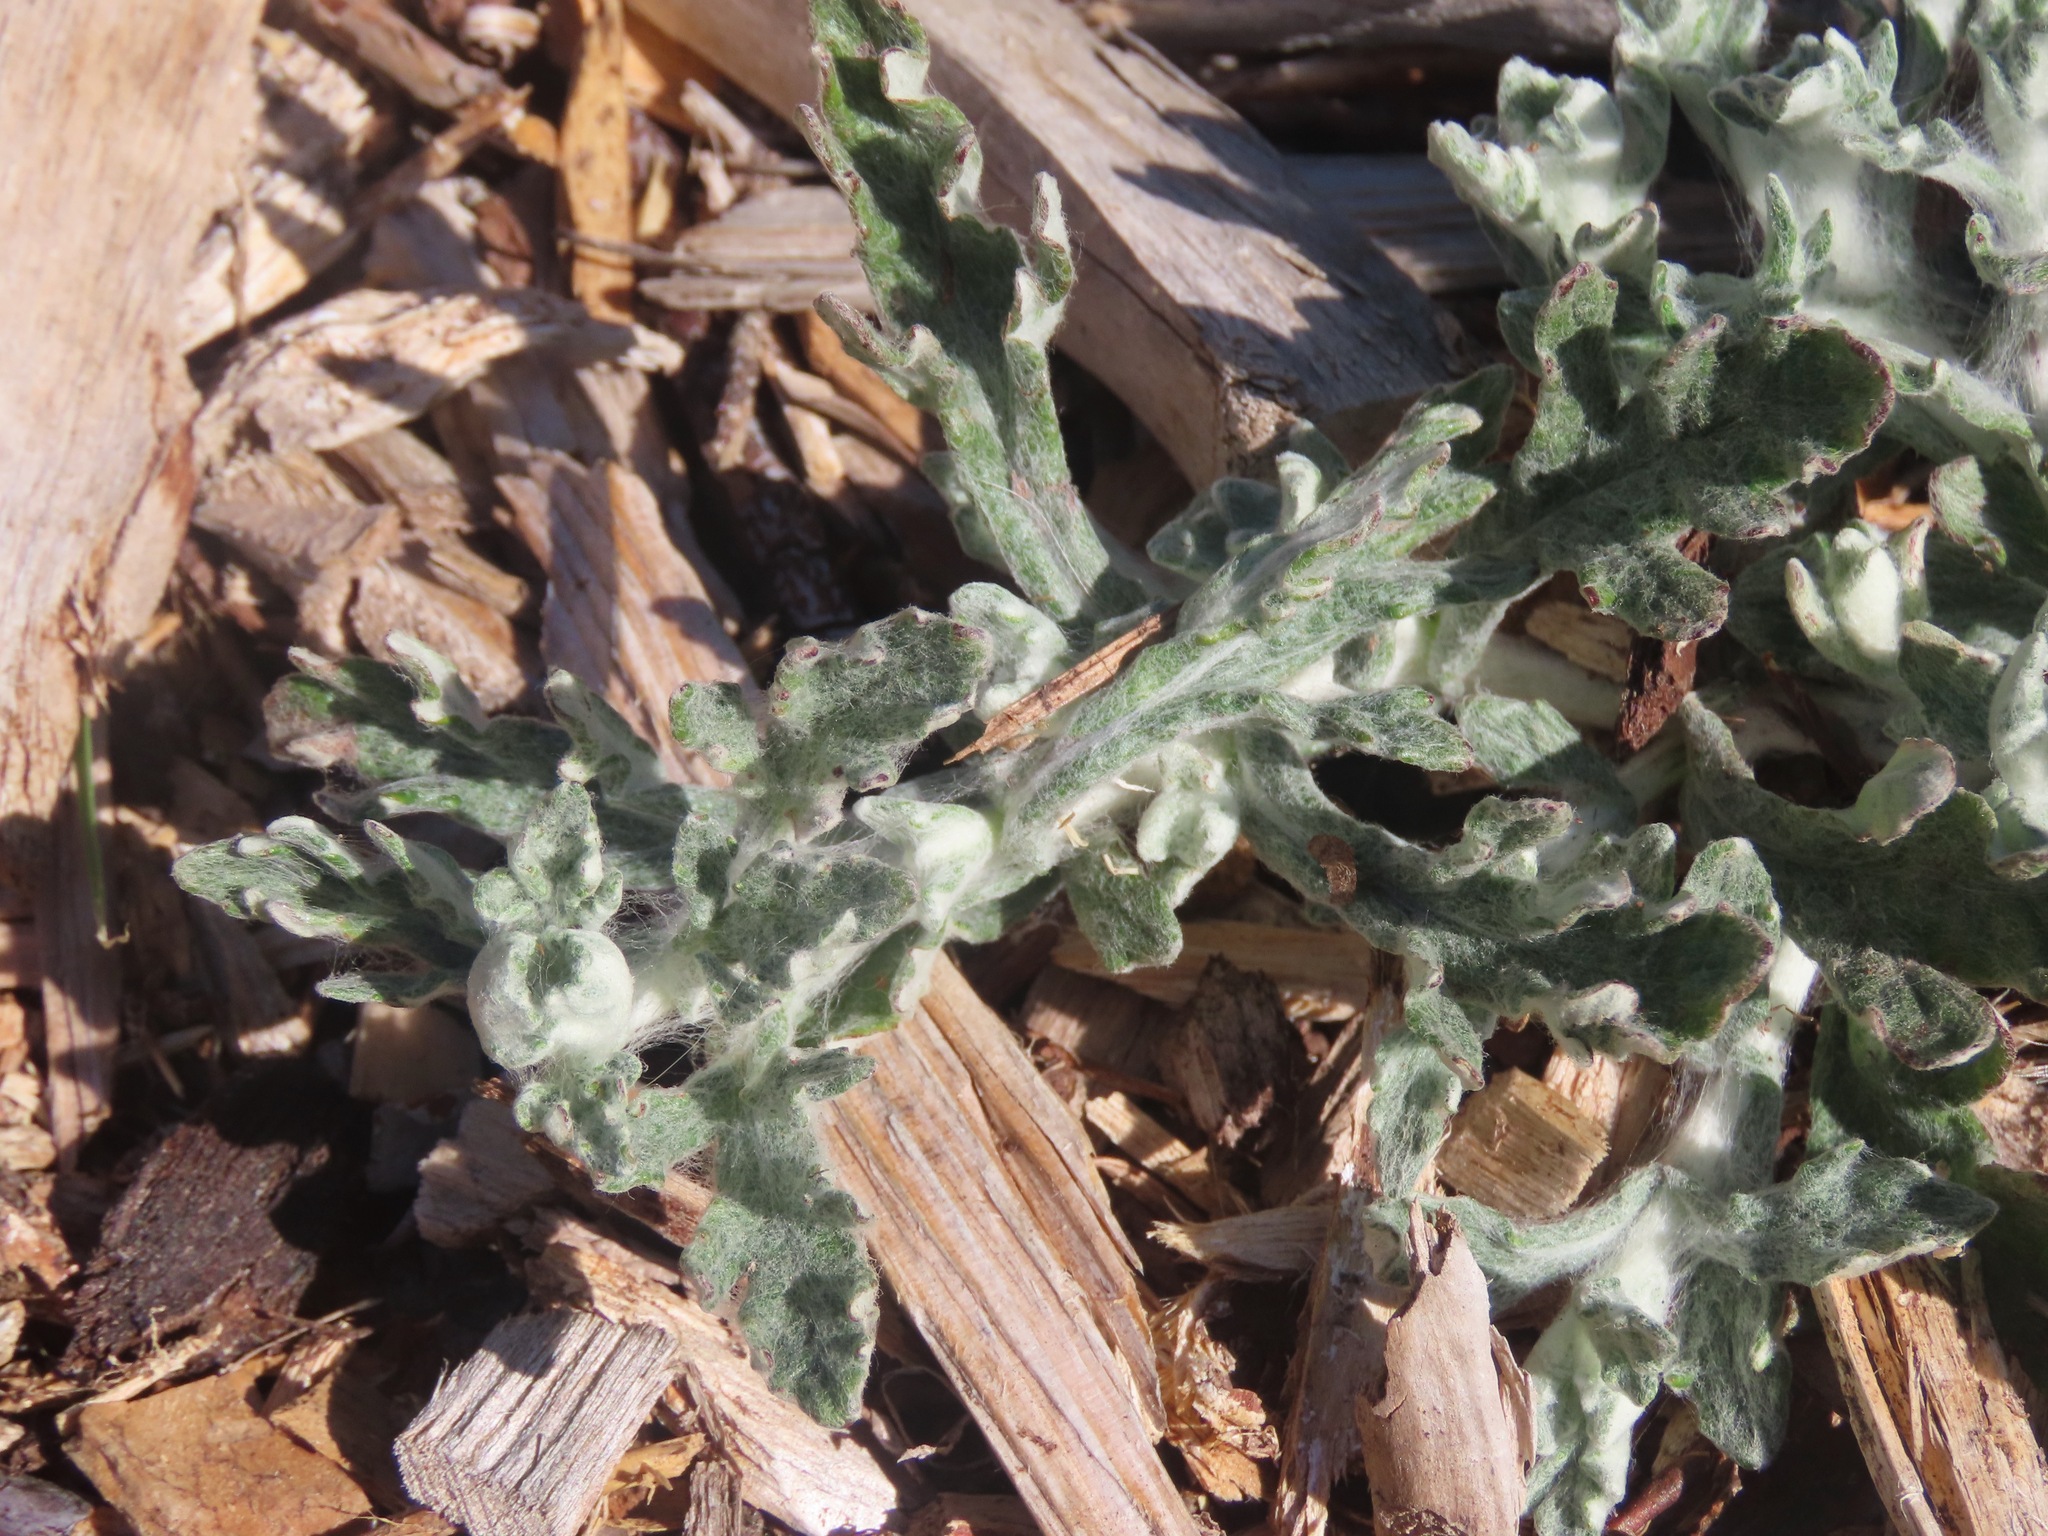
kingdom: Plantae
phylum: Tracheophyta
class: Magnoliopsida
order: Asterales
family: Asteraceae
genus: Eriophyllum
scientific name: Eriophyllum lanatum
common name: Common woolly-sunflower
